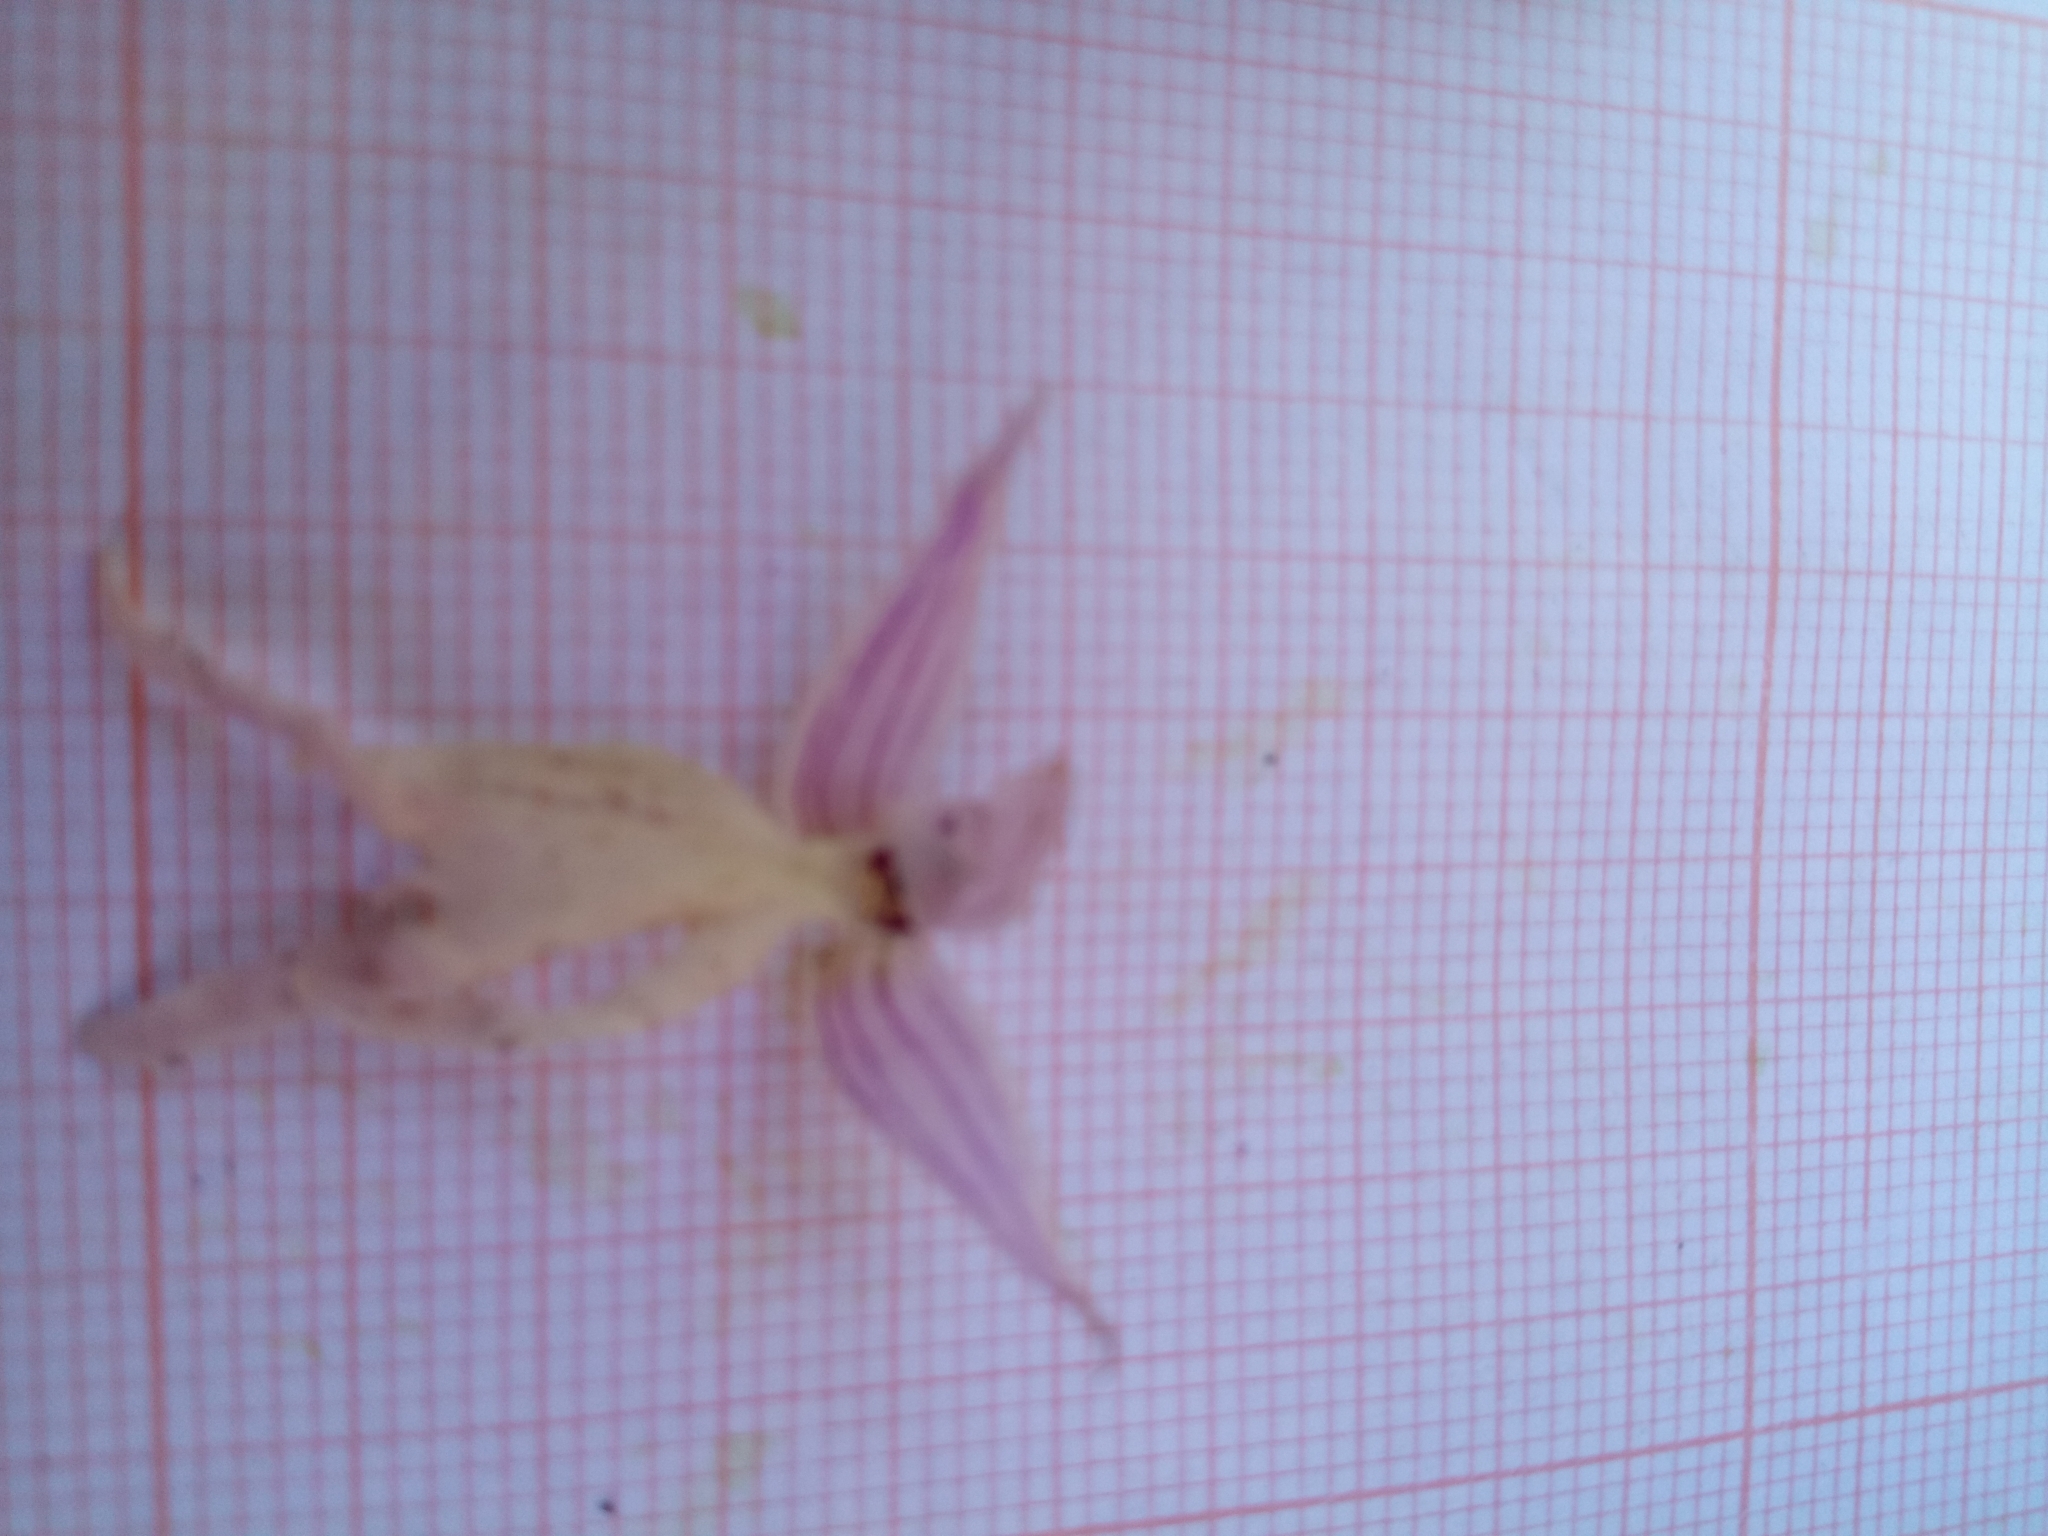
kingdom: Plantae
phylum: Tracheophyta
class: Liliopsida
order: Asparagales
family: Orchidaceae
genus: Orchis
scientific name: Orchis italica
